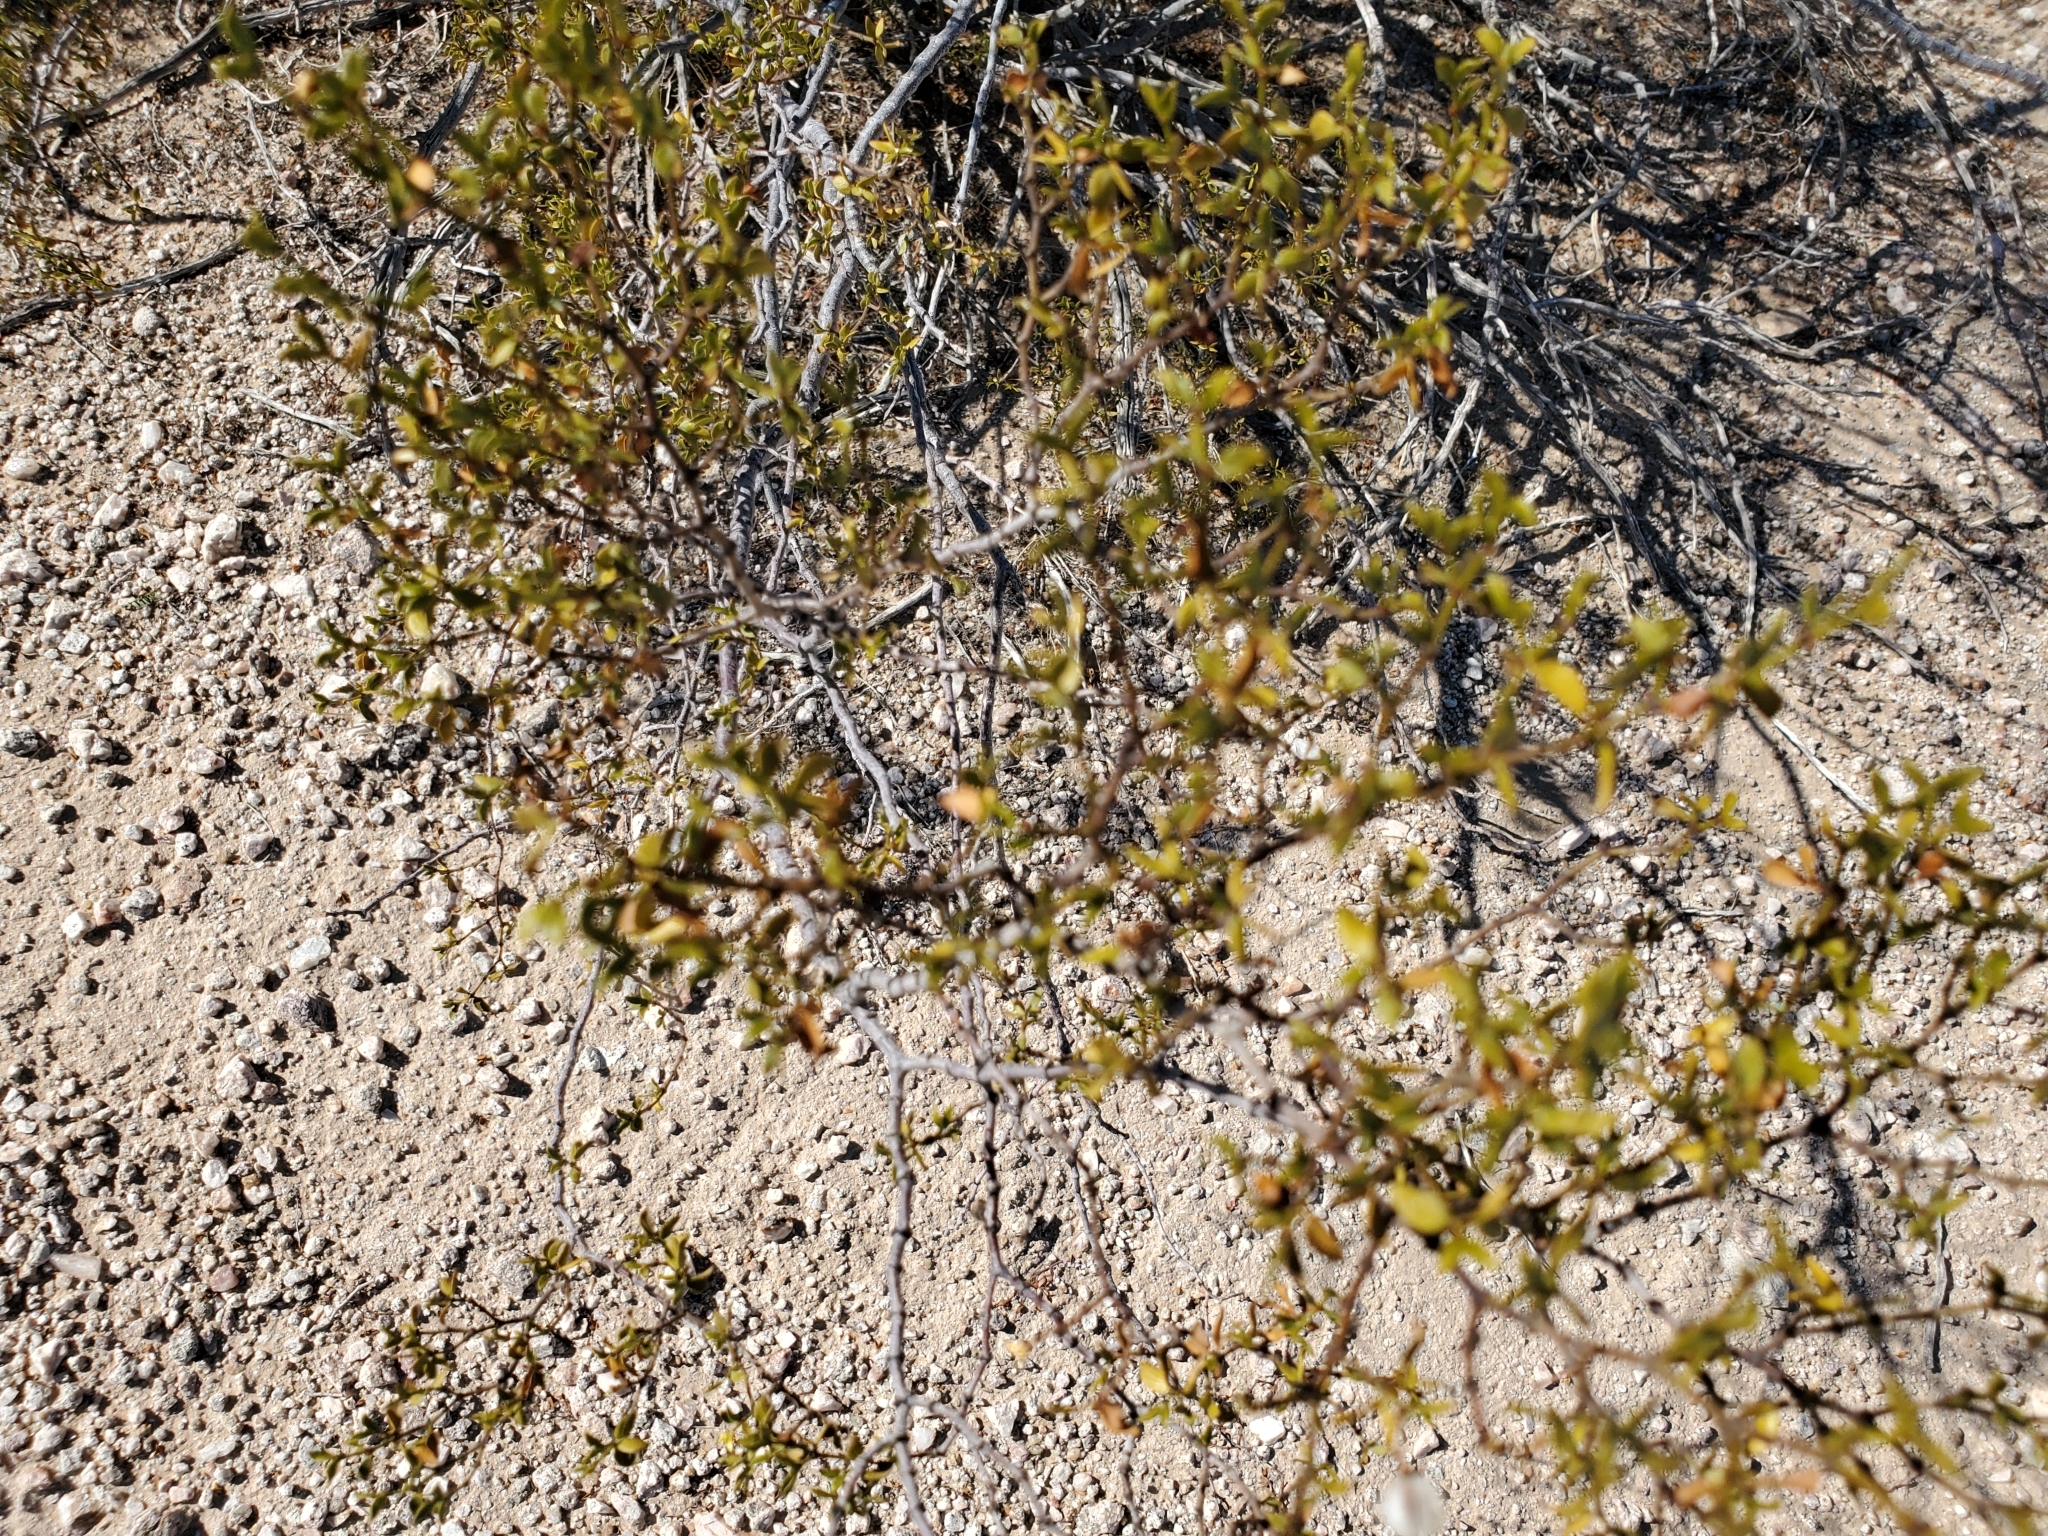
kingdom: Plantae
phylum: Tracheophyta
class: Magnoliopsida
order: Zygophyllales
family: Zygophyllaceae
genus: Larrea
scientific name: Larrea tridentata
